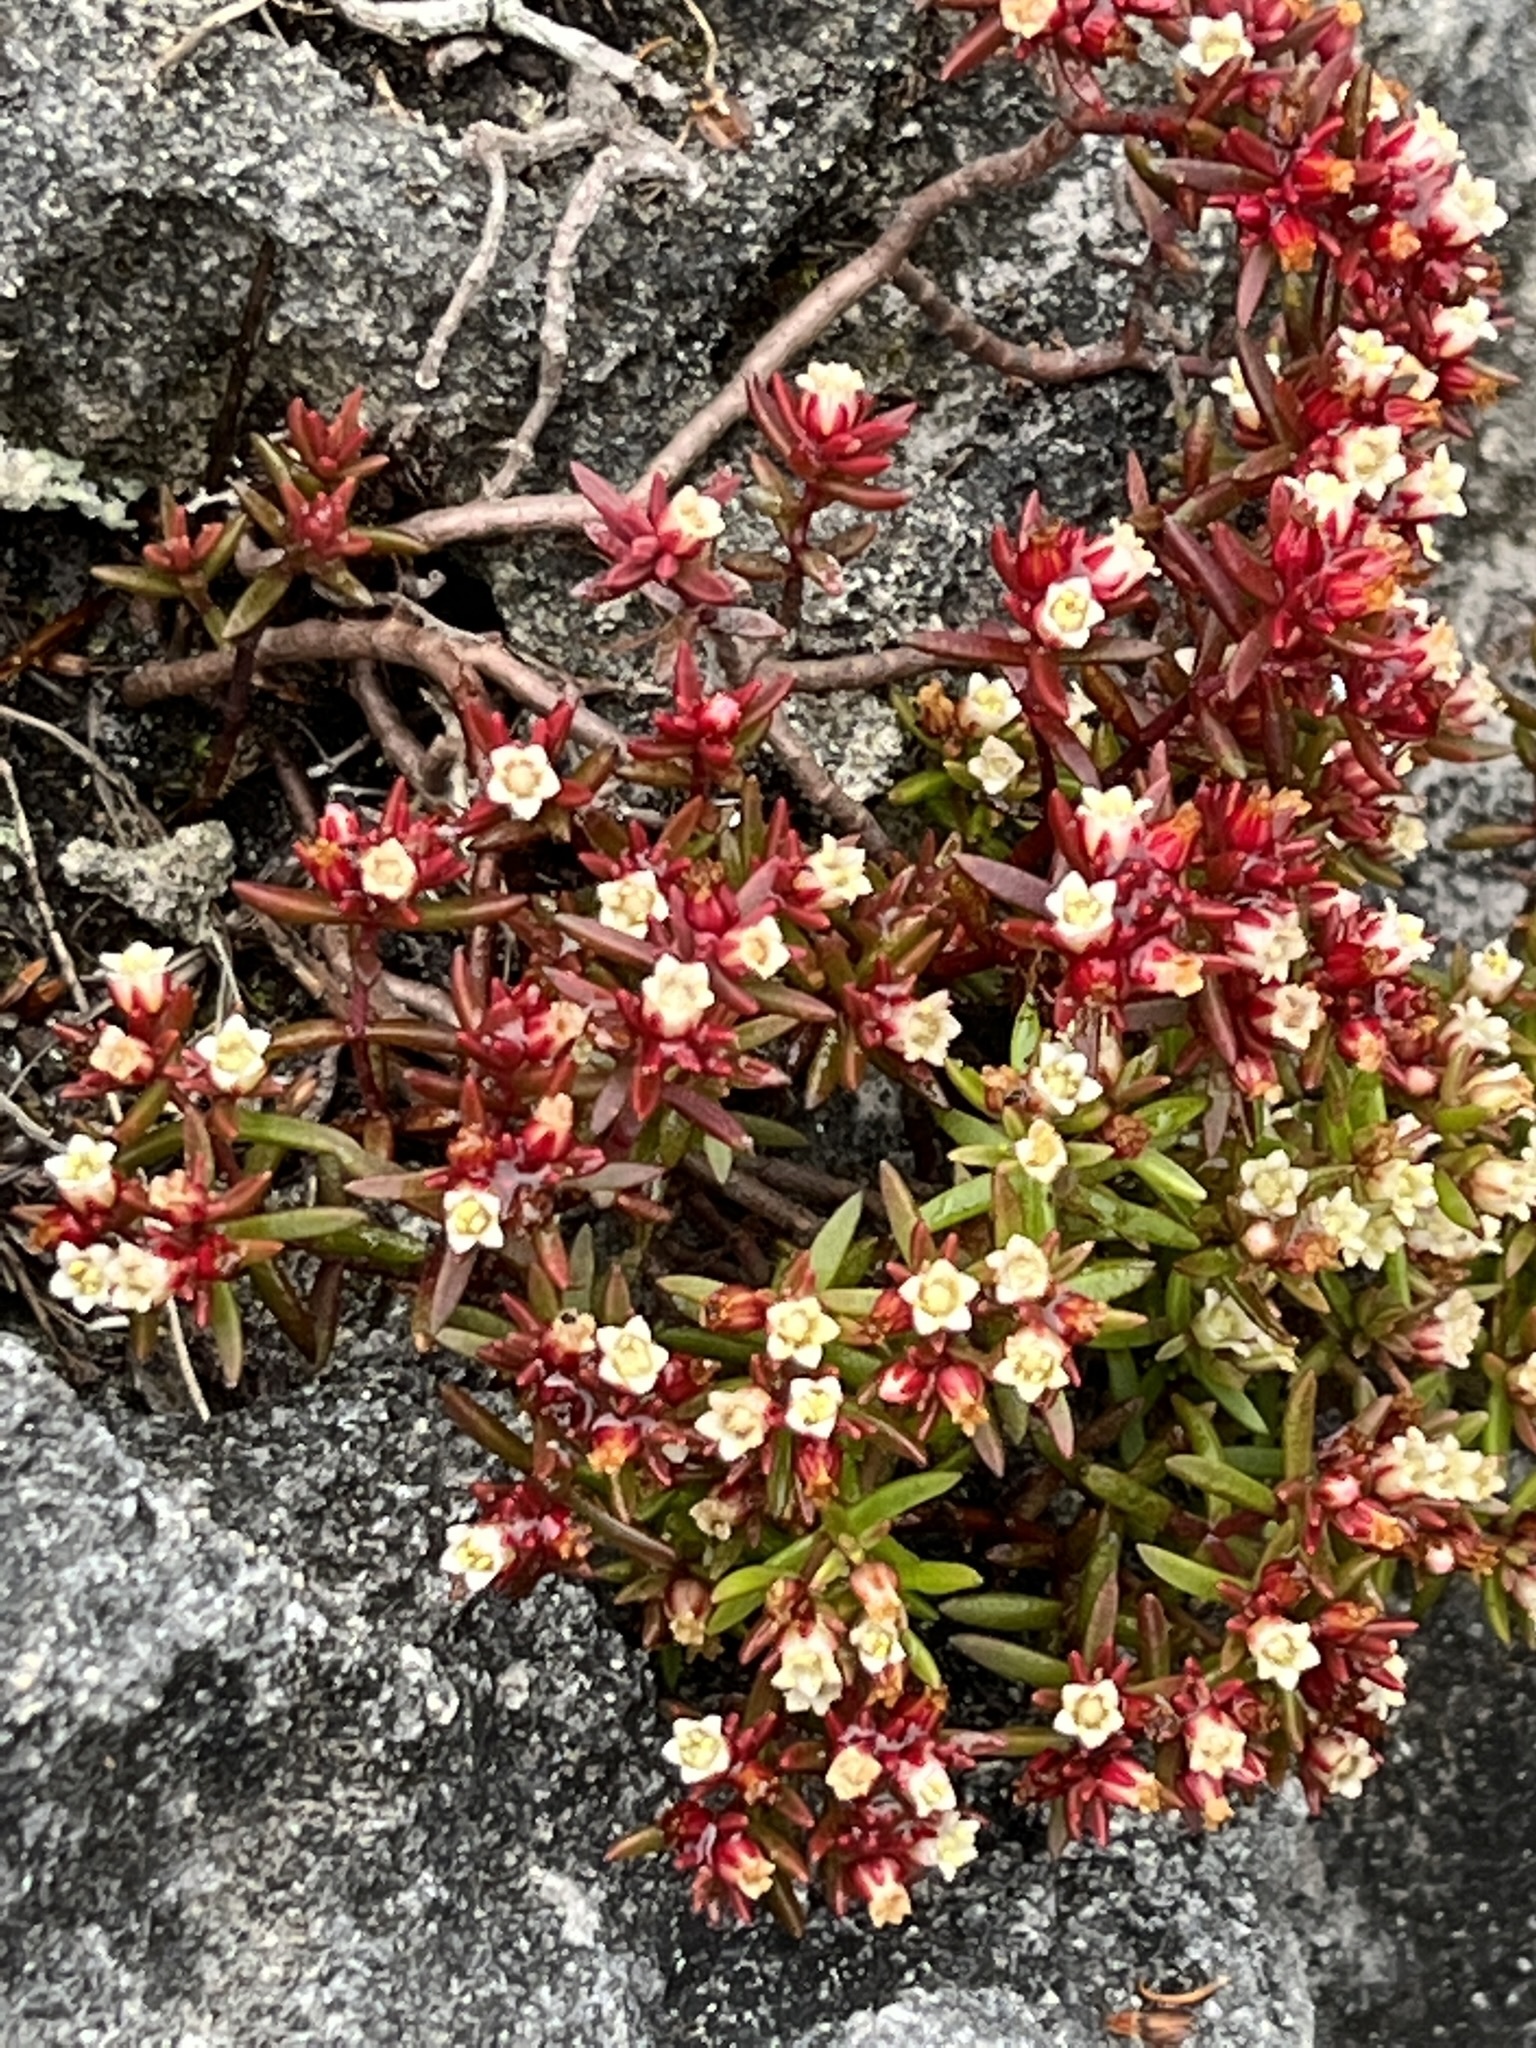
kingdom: Plantae
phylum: Tracheophyta
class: Magnoliopsida
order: Saxifragales
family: Crassulaceae
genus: Crassula
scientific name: Crassula expansa
